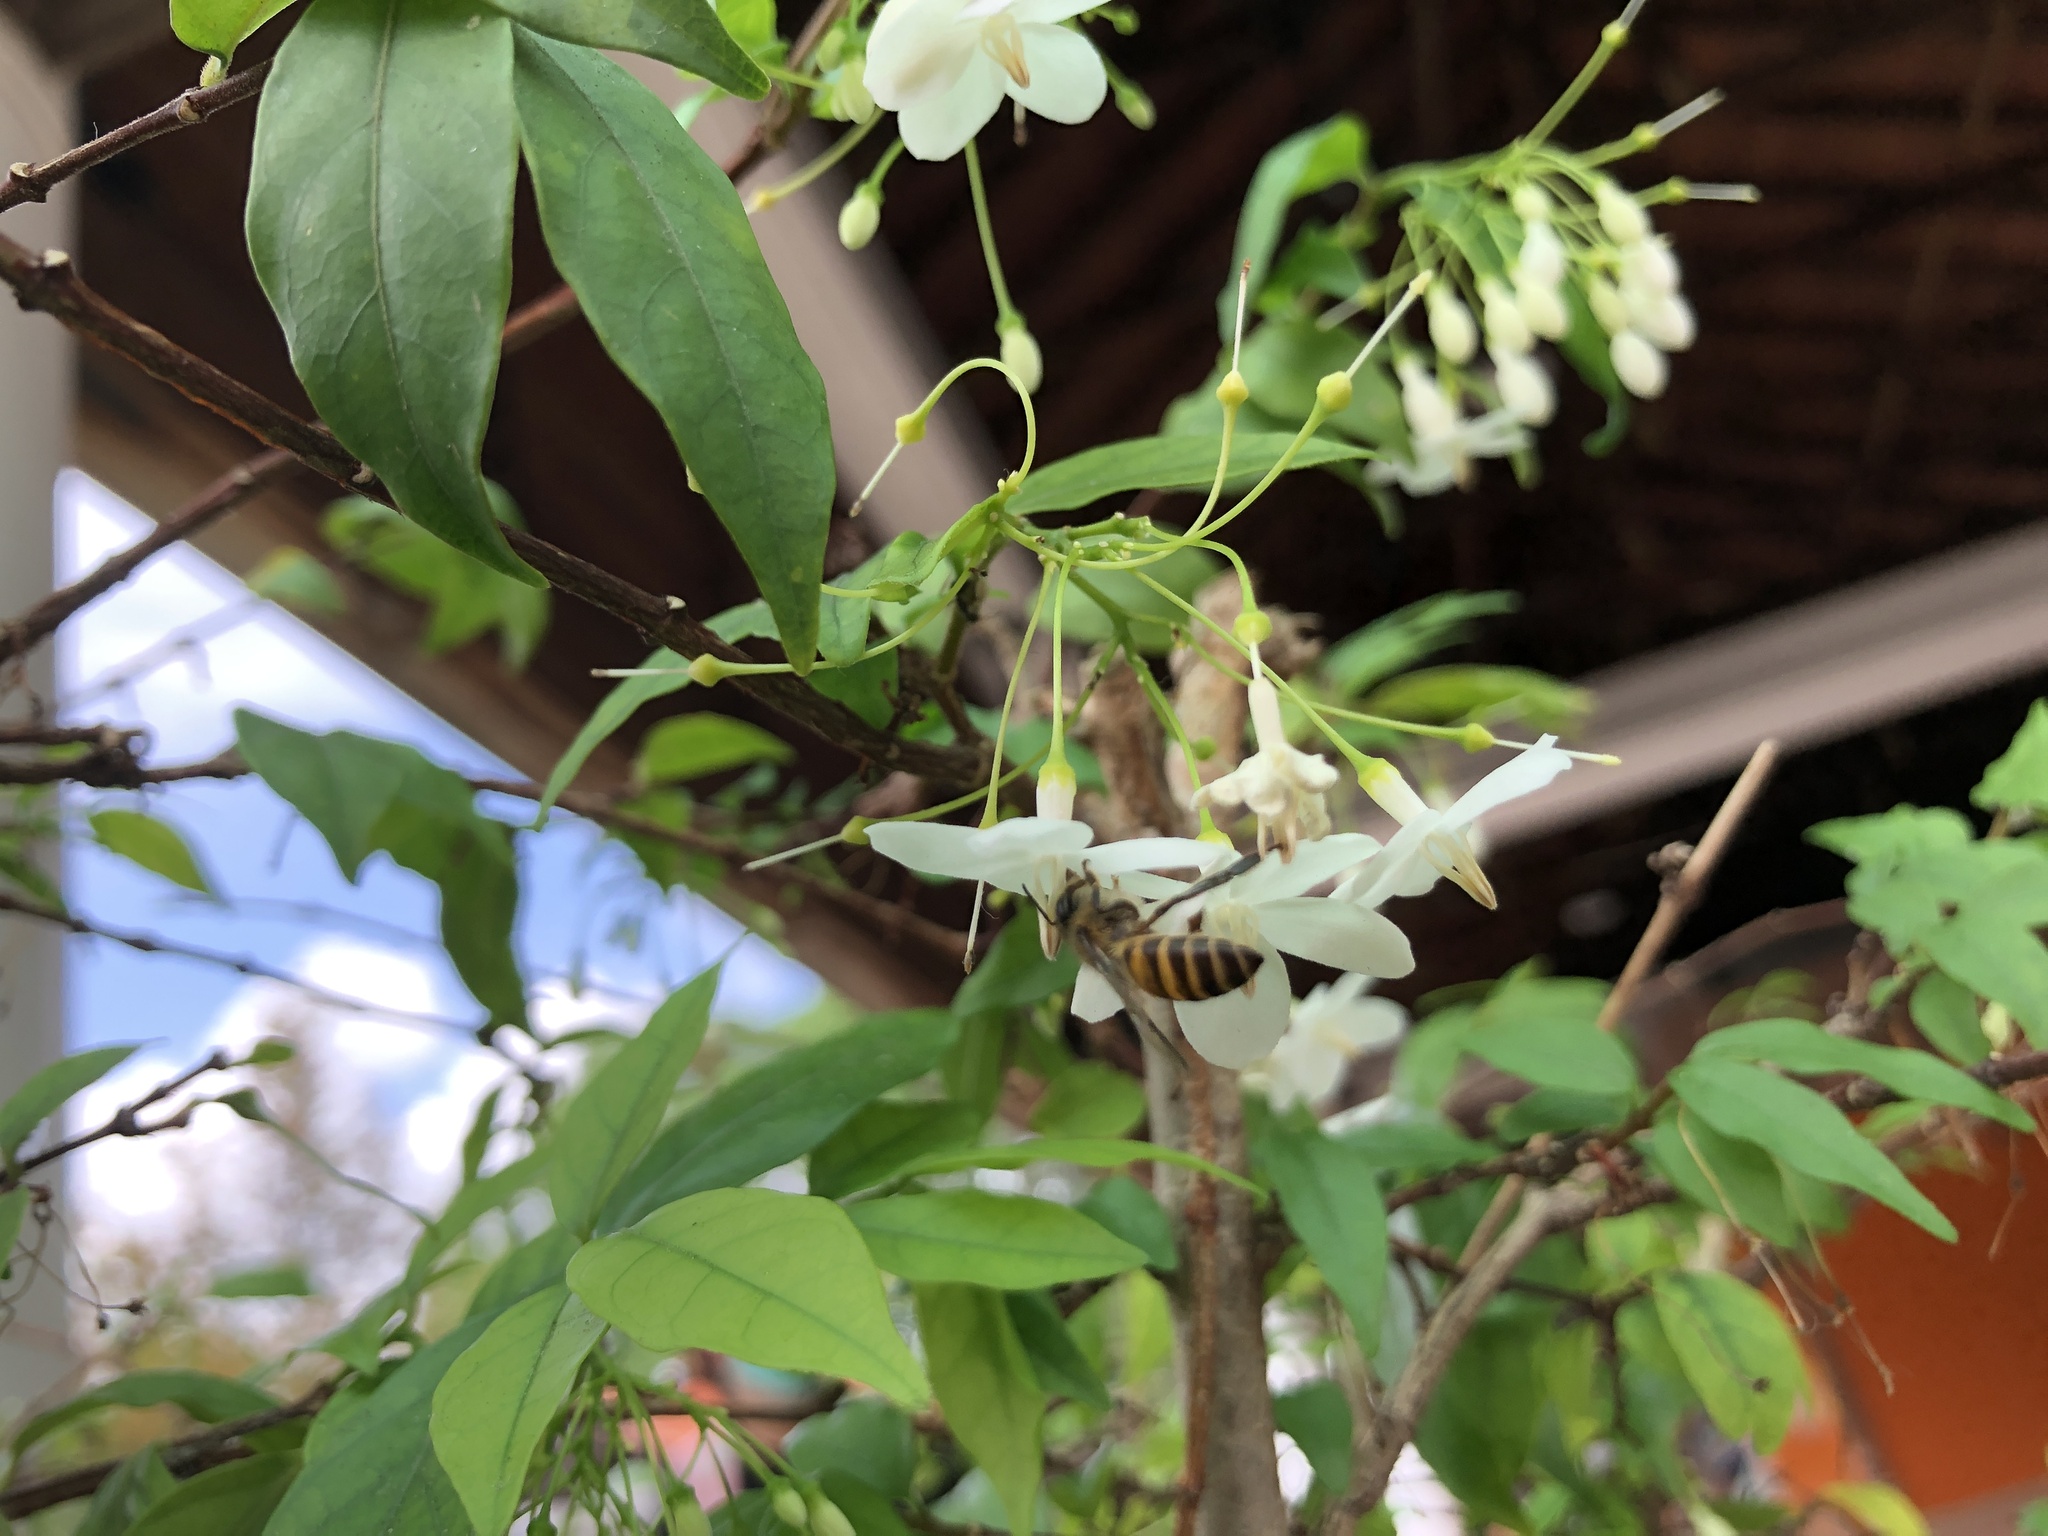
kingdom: Animalia
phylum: Arthropoda
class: Insecta
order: Hymenoptera
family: Apidae
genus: Apis
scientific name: Apis cerana
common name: Honey bee
